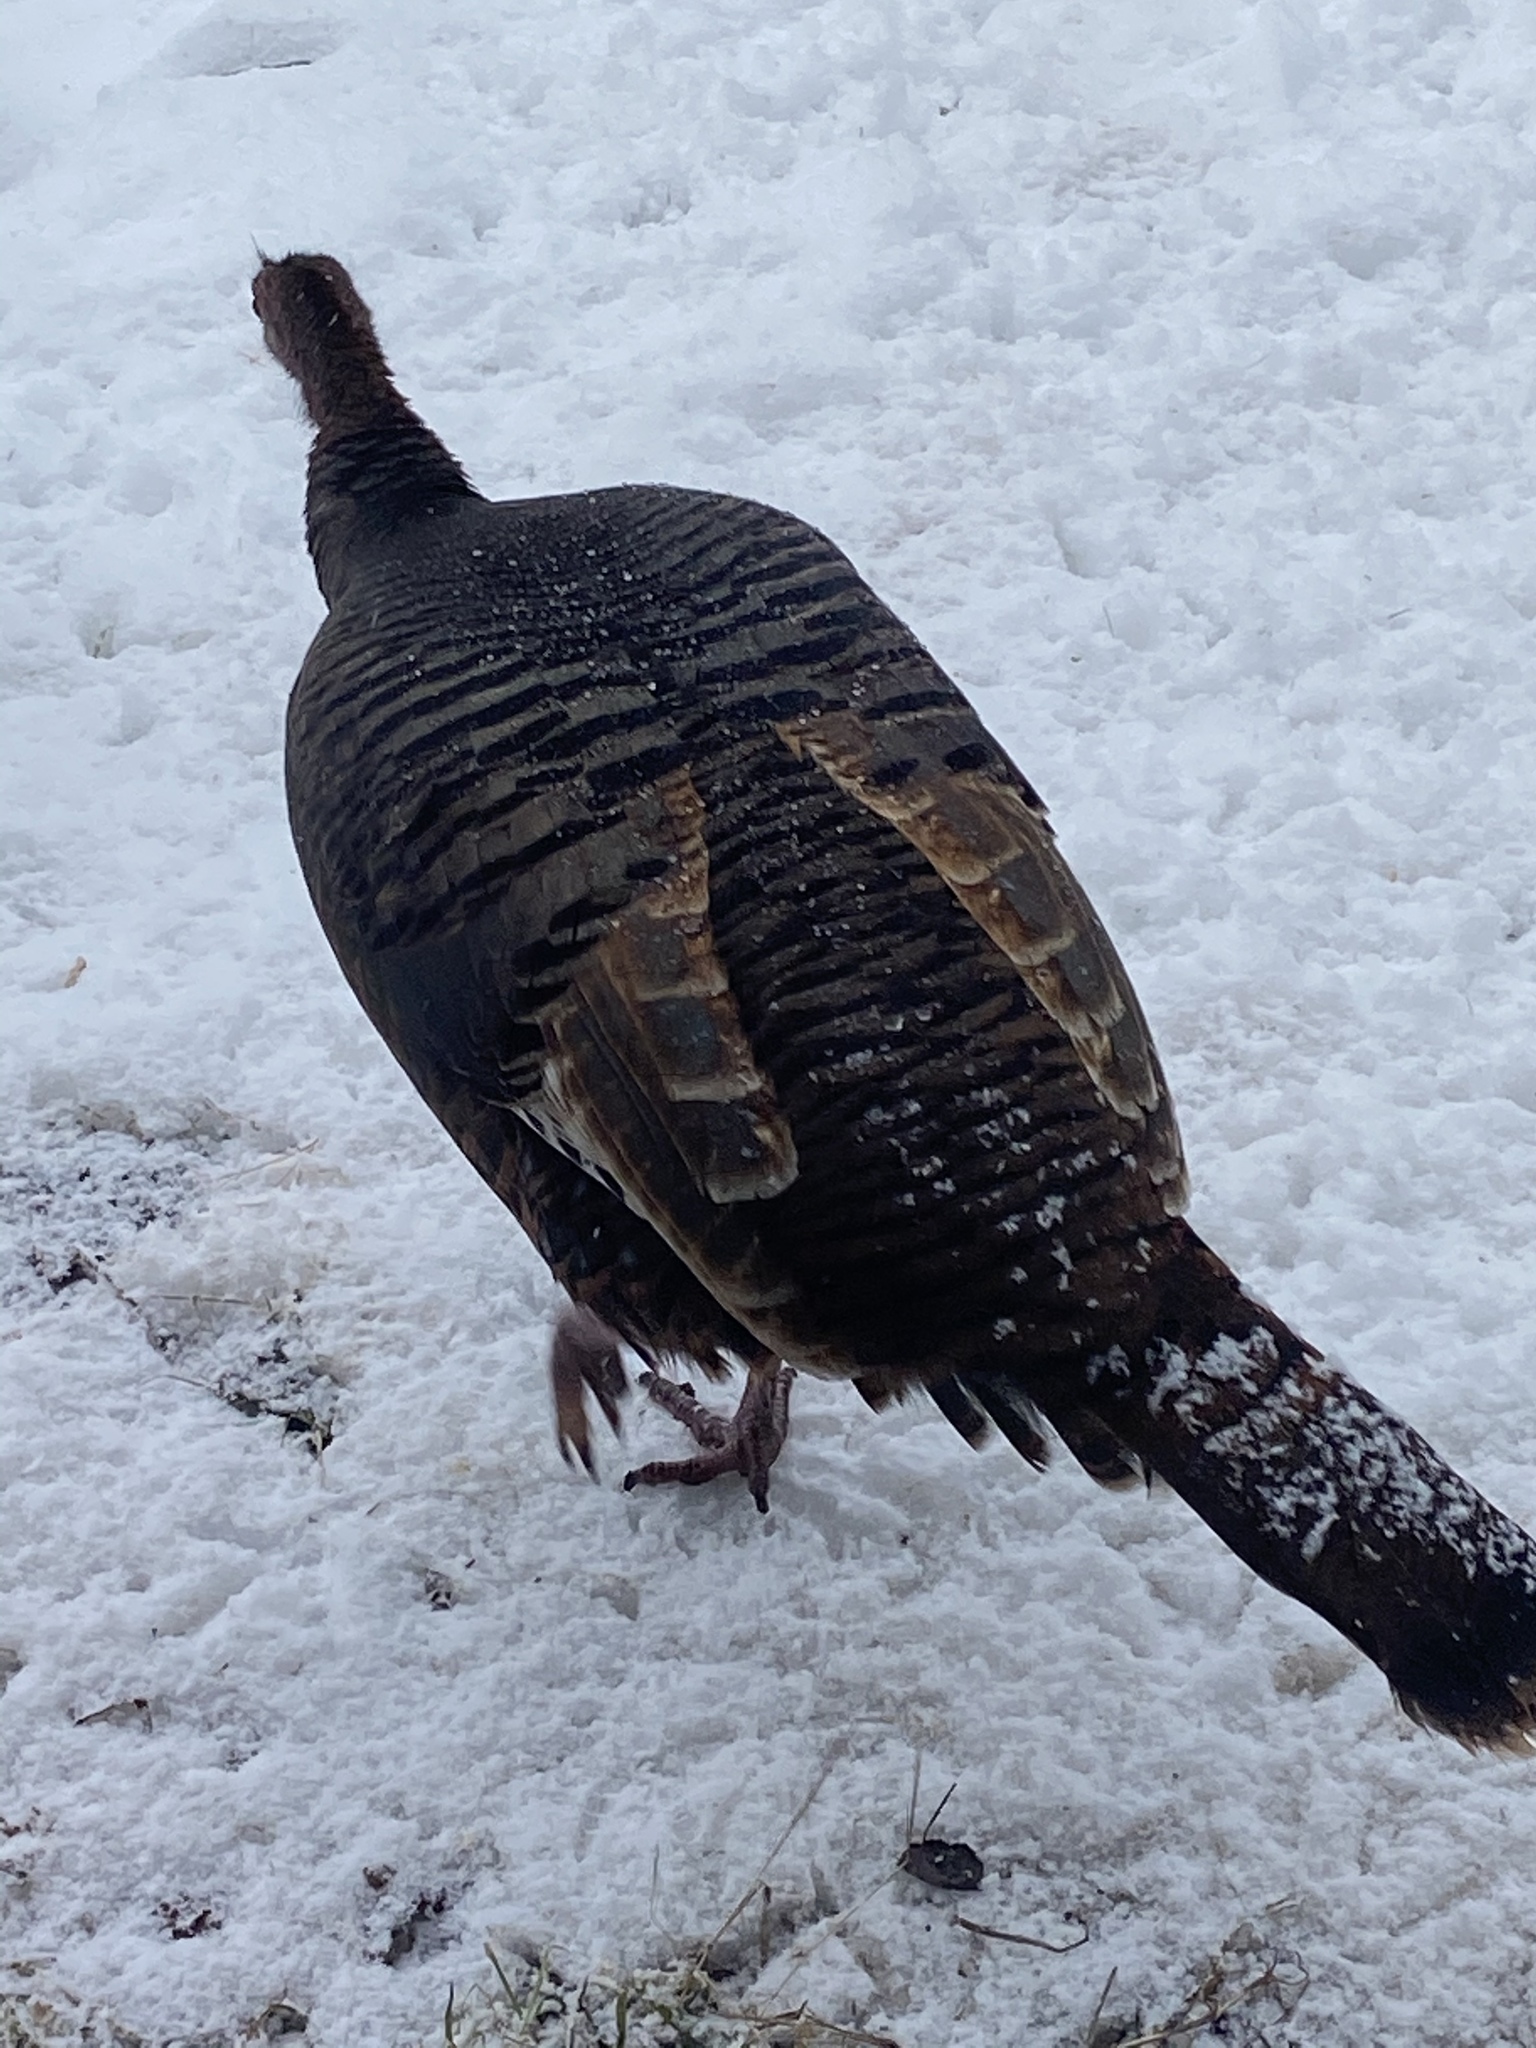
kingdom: Animalia
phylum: Chordata
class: Aves
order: Galliformes
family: Phasianidae
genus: Meleagris
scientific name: Meleagris gallopavo
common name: Wild turkey
